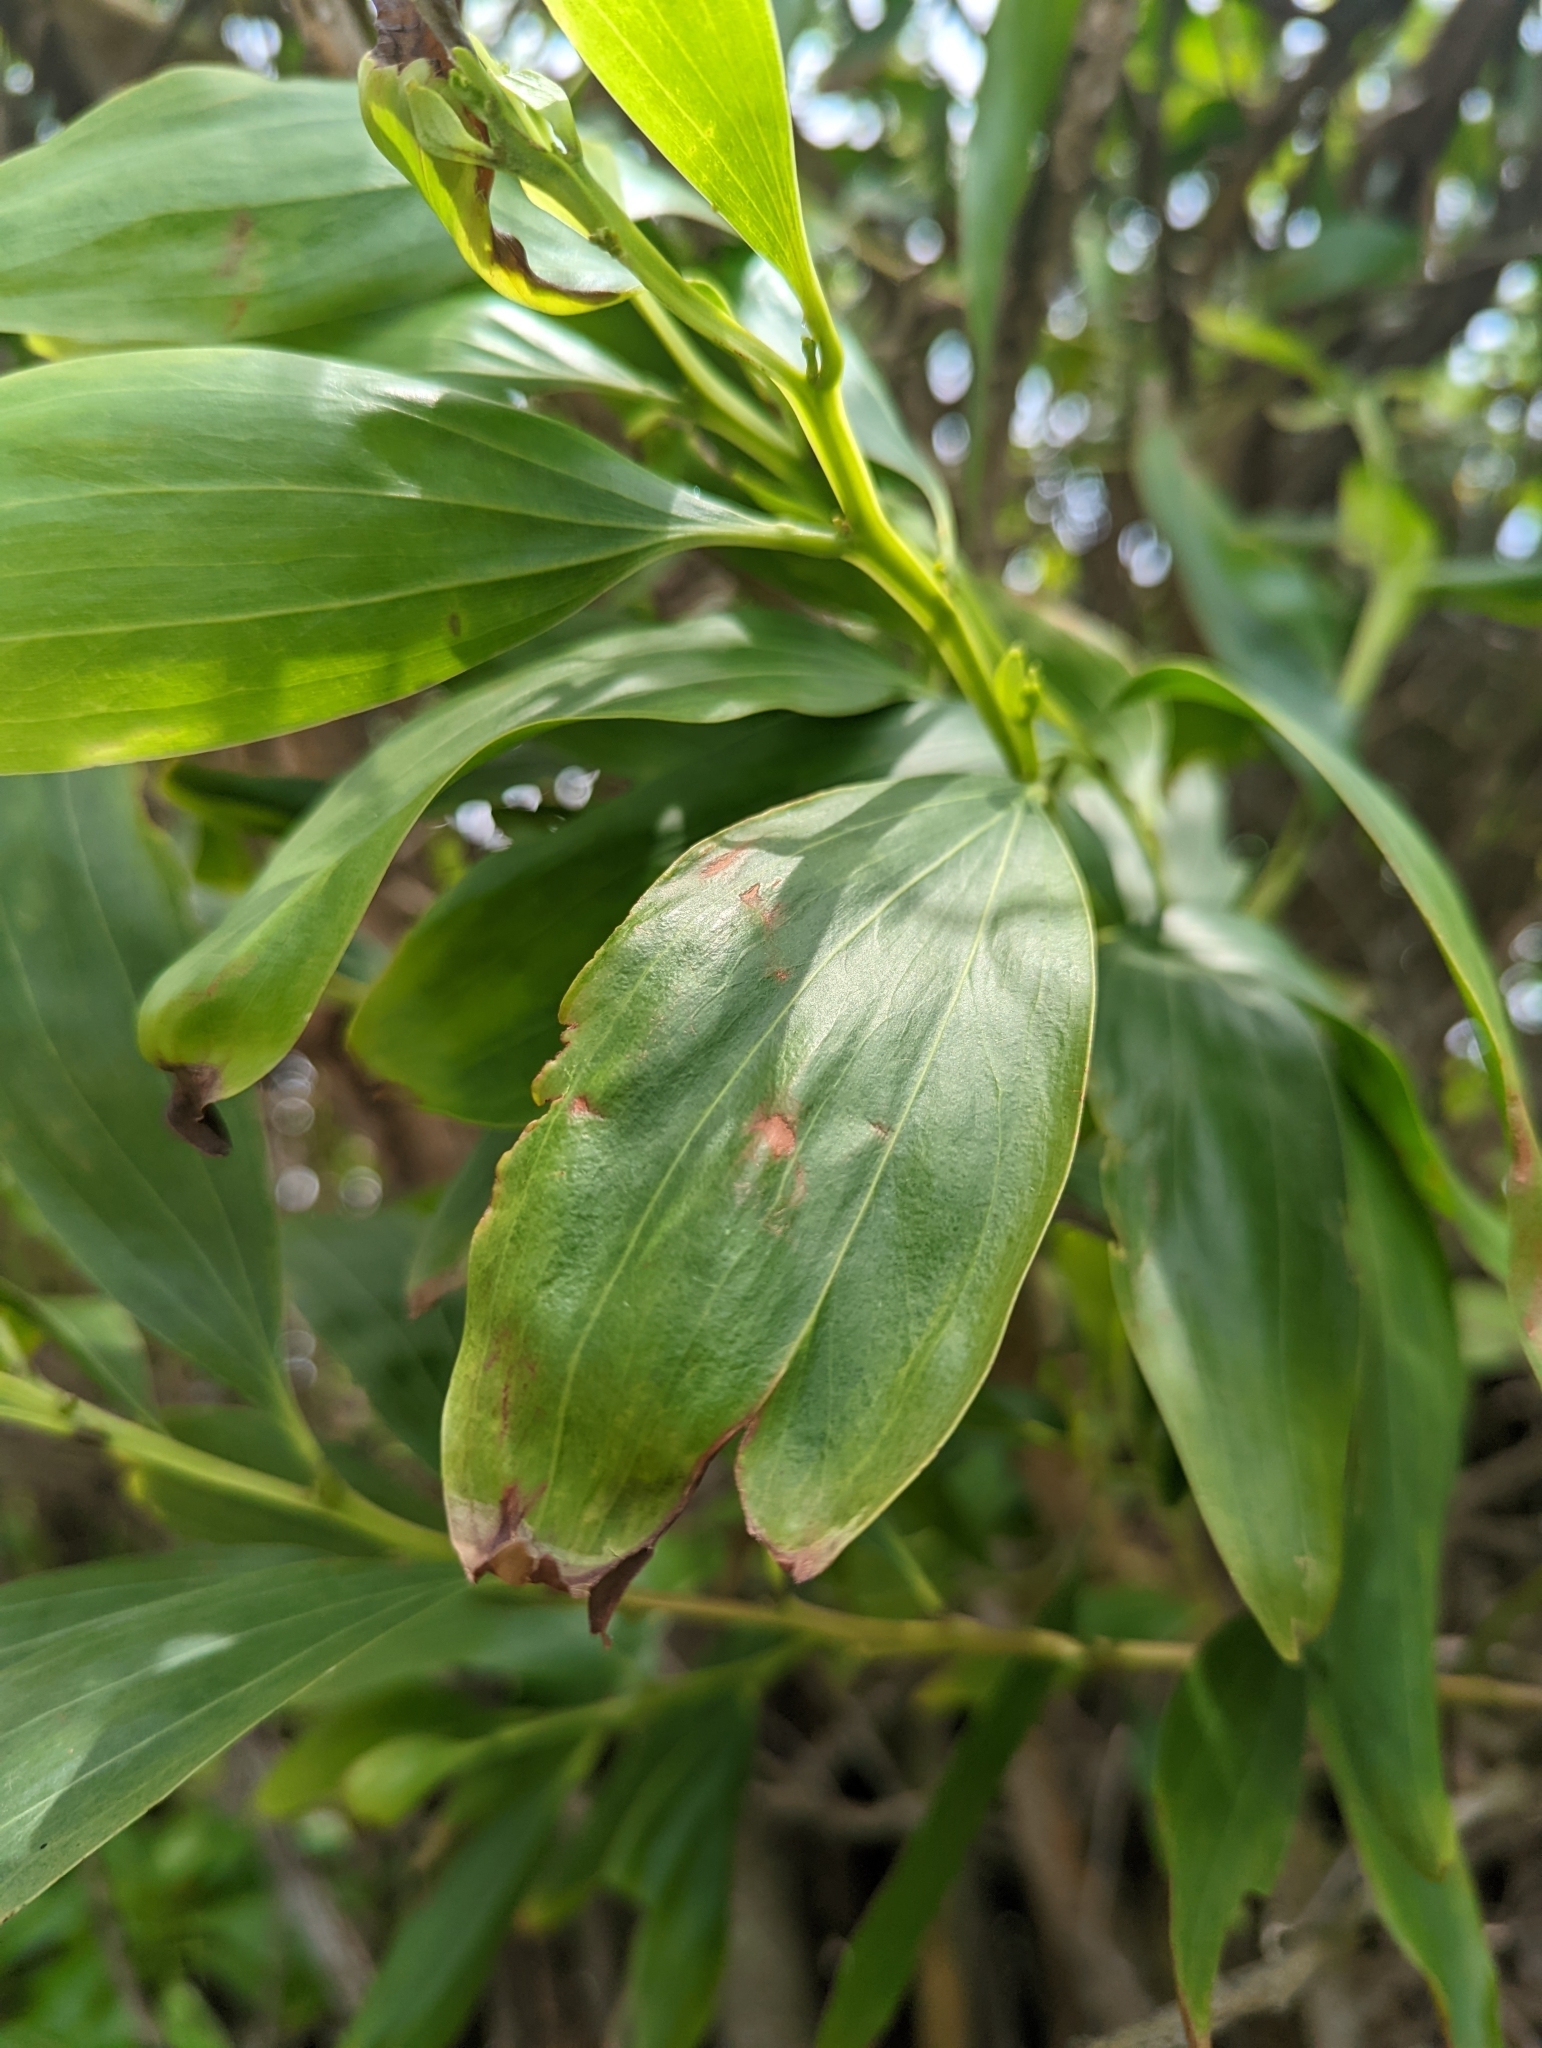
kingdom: Plantae
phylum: Tracheophyta
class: Magnoliopsida
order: Fabales
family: Fabaceae
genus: Acacia
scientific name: Acacia mangium
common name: Black wattle
